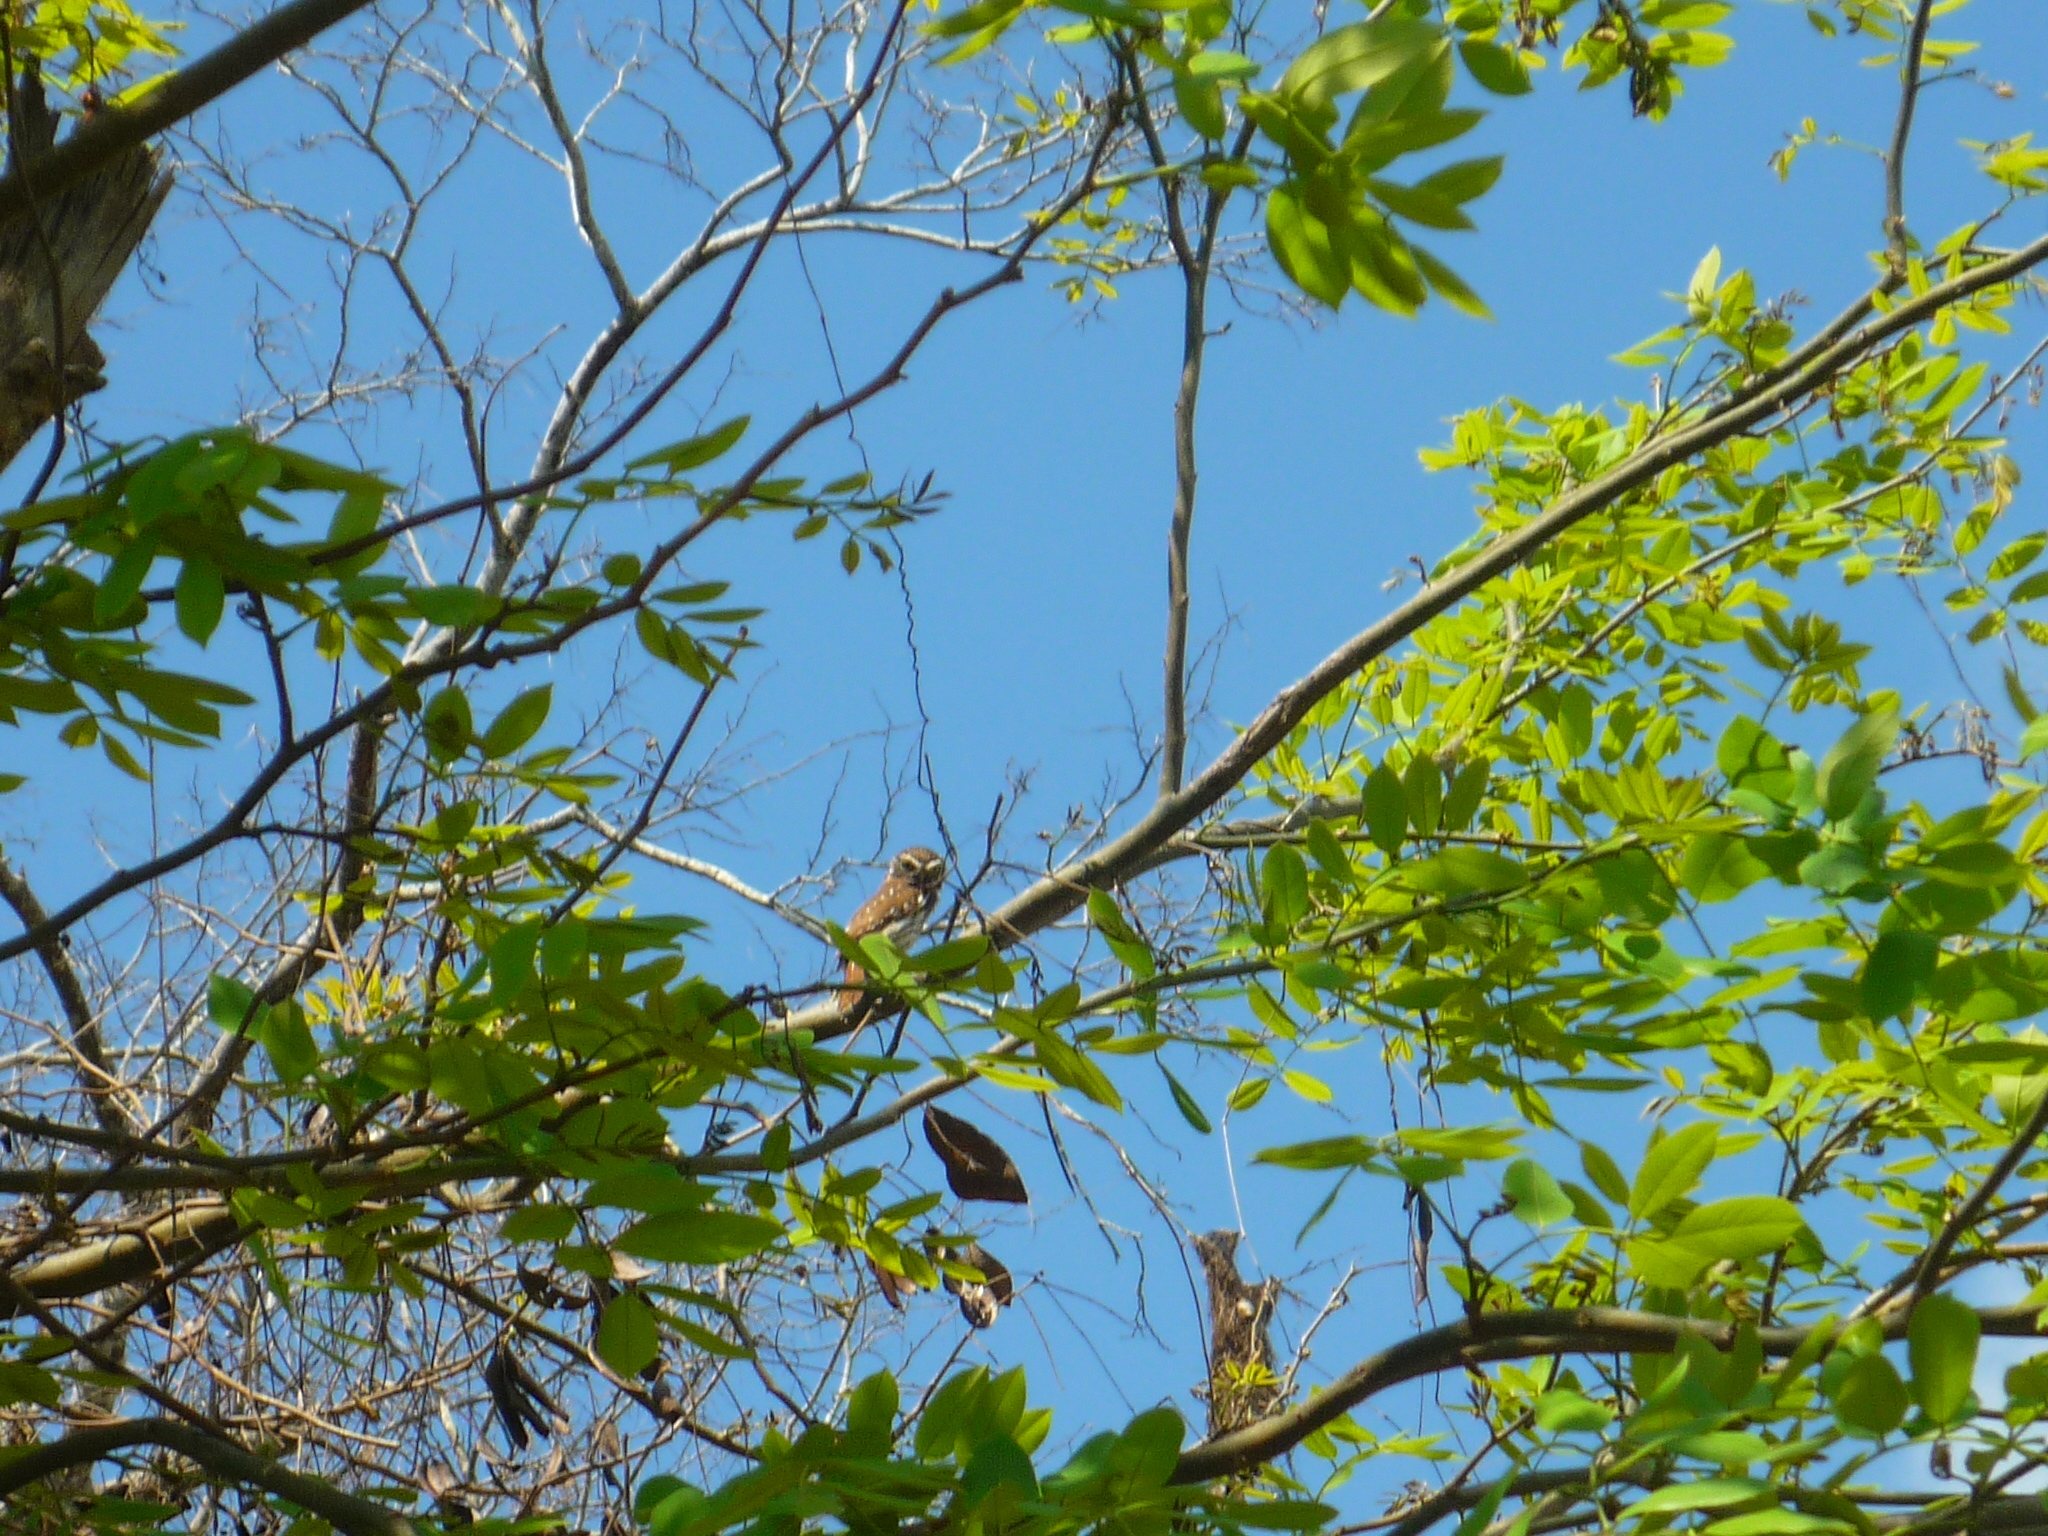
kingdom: Animalia
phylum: Chordata
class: Aves
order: Strigiformes
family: Strigidae
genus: Glaucidium
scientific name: Glaucidium brasilianum
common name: Ferruginous pygmy-owl
